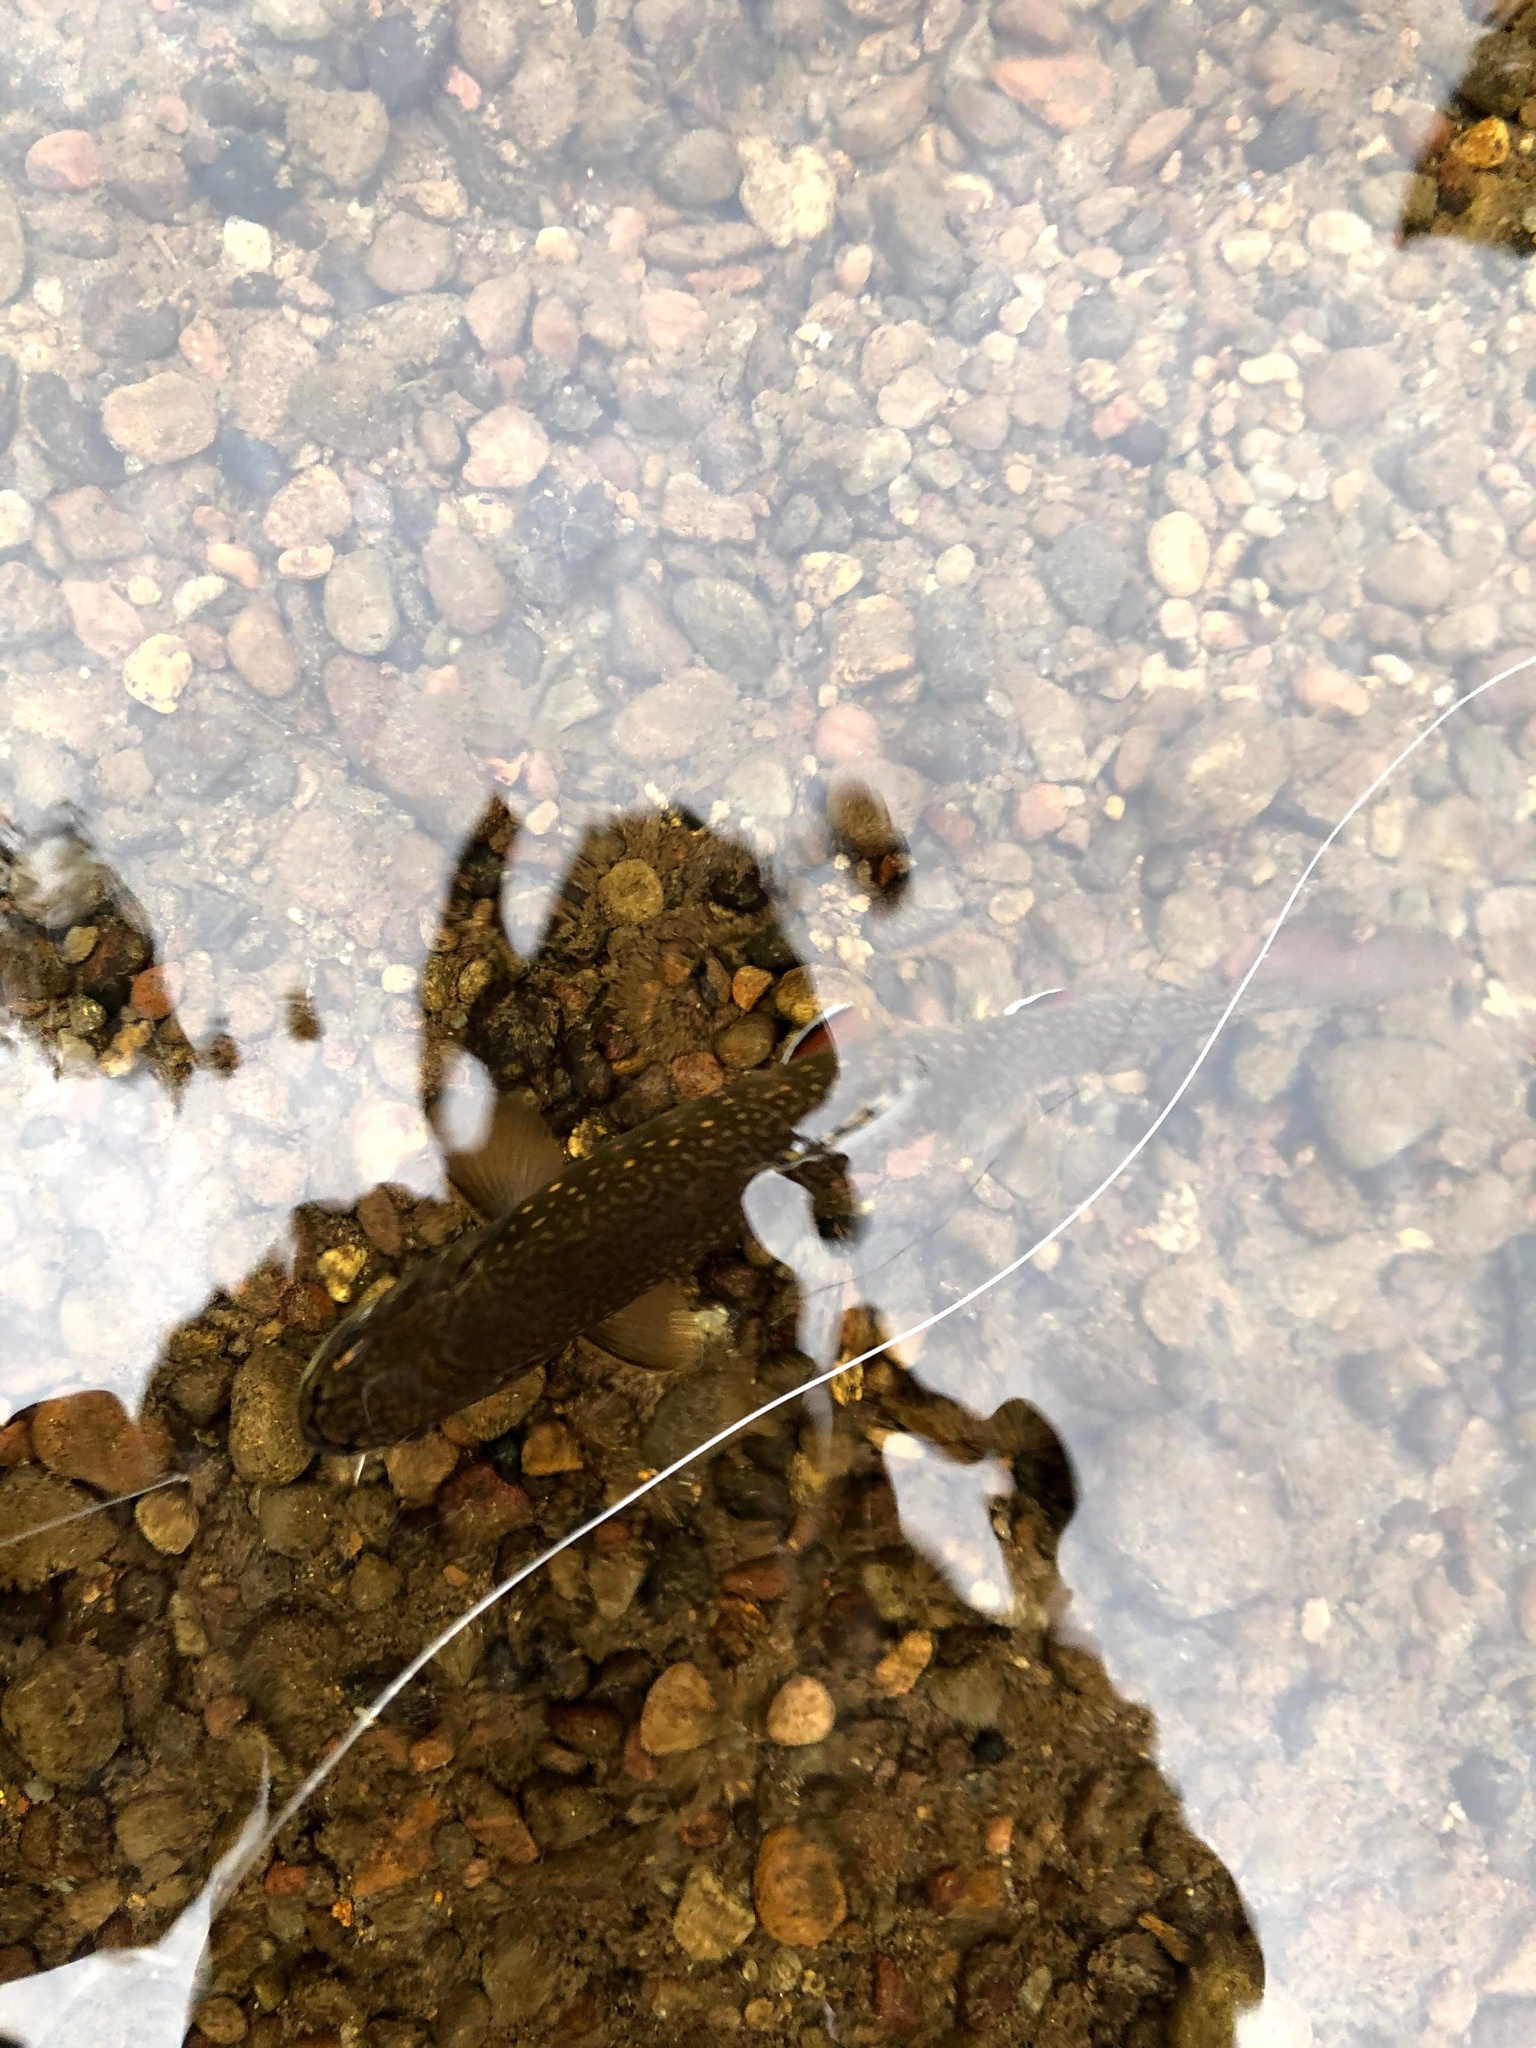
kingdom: Animalia
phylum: Chordata
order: Salmoniformes
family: Salmonidae
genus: Salvelinus
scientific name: Salvelinus fontinalis
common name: Brook trout
